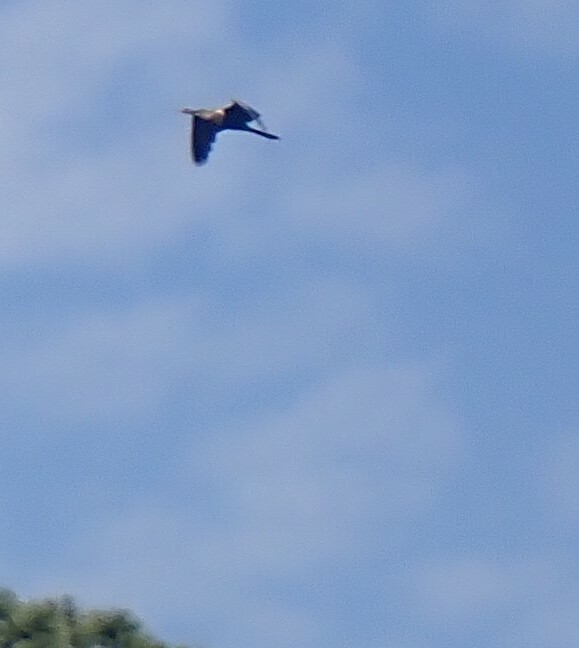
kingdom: Animalia
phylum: Chordata
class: Aves
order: Suliformes
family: Anhingidae
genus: Anhinga
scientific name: Anhinga anhinga
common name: Anhinga
